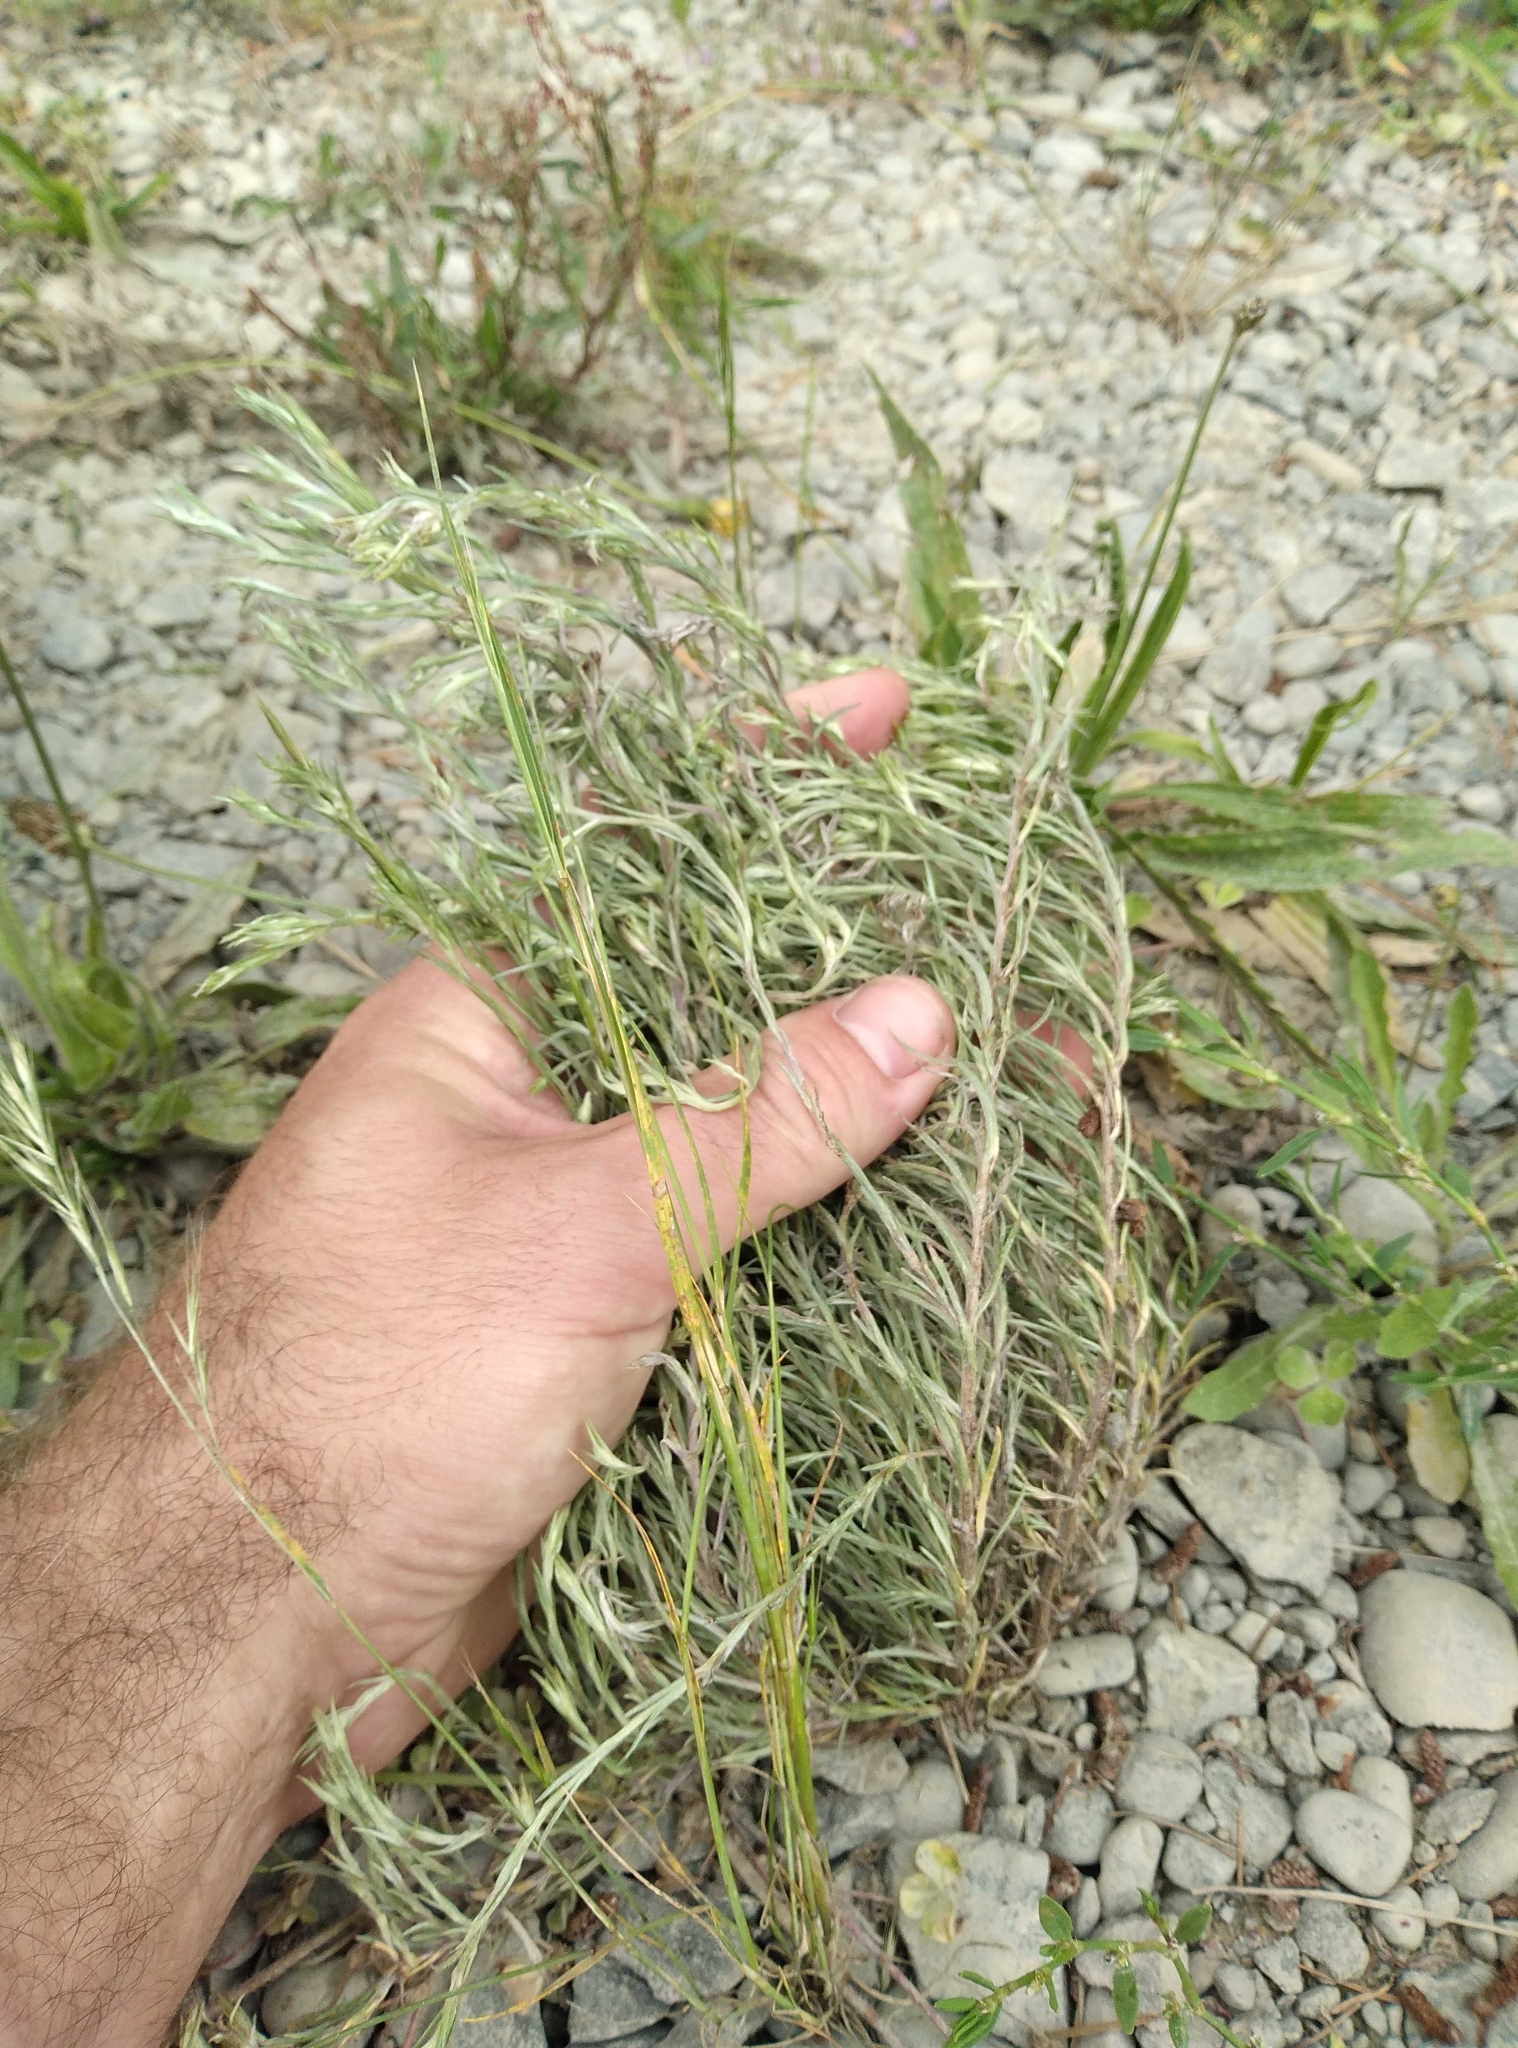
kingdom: Plantae
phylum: Tracheophyta
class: Magnoliopsida
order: Asterales
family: Asteraceae
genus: Logfia
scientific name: Logfia gallica
